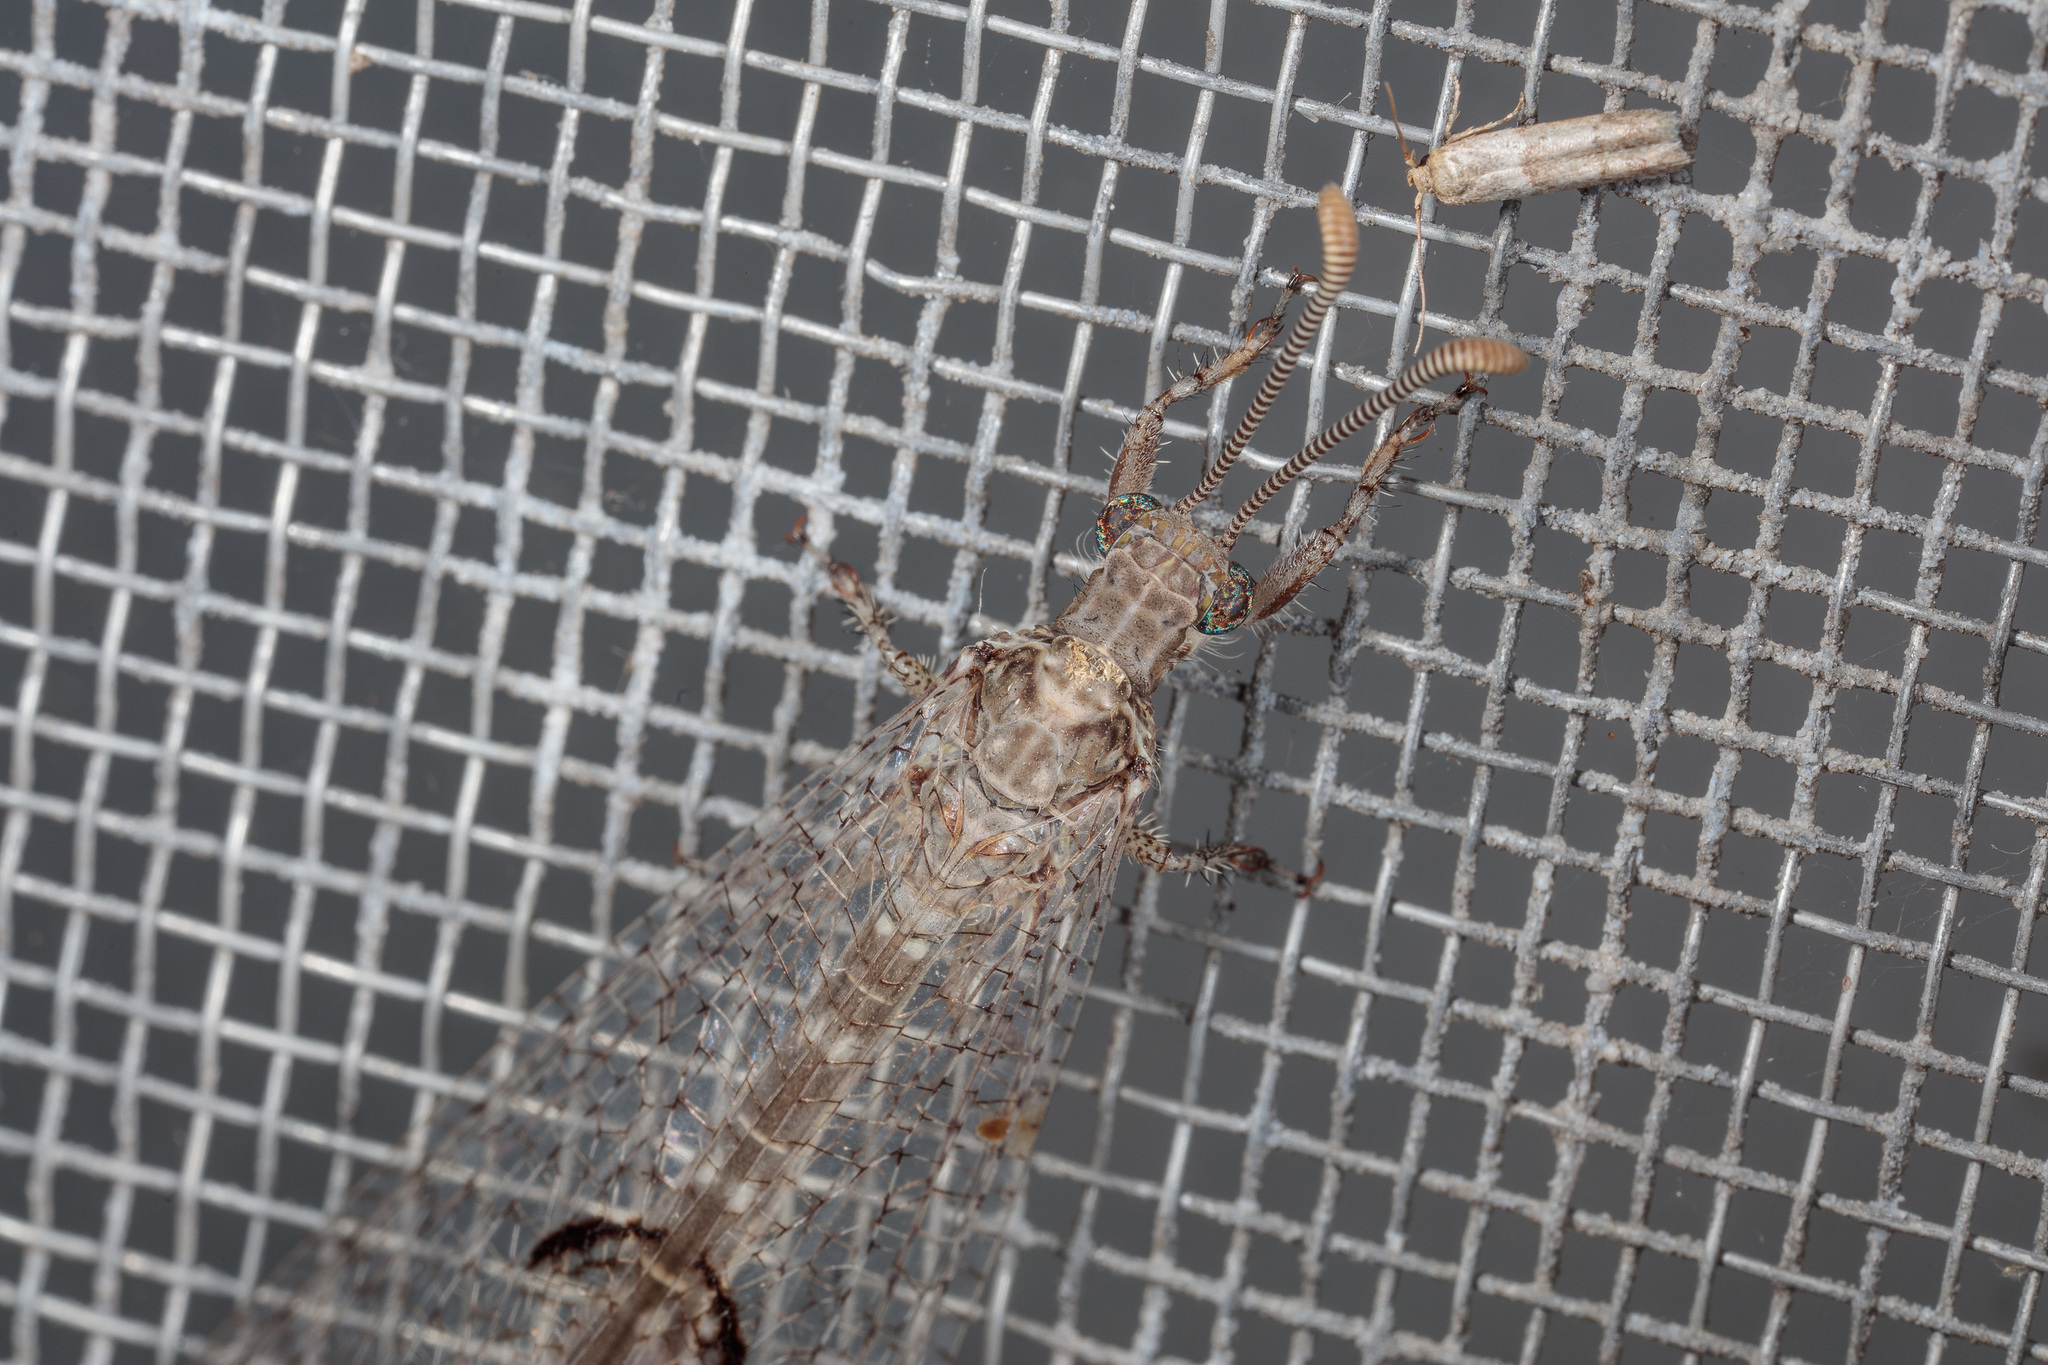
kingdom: Animalia
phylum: Arthropoda
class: Insecta
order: Neuroptera
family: Myrmeleontidae
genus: Euptilon
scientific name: Euptilon ornatum
